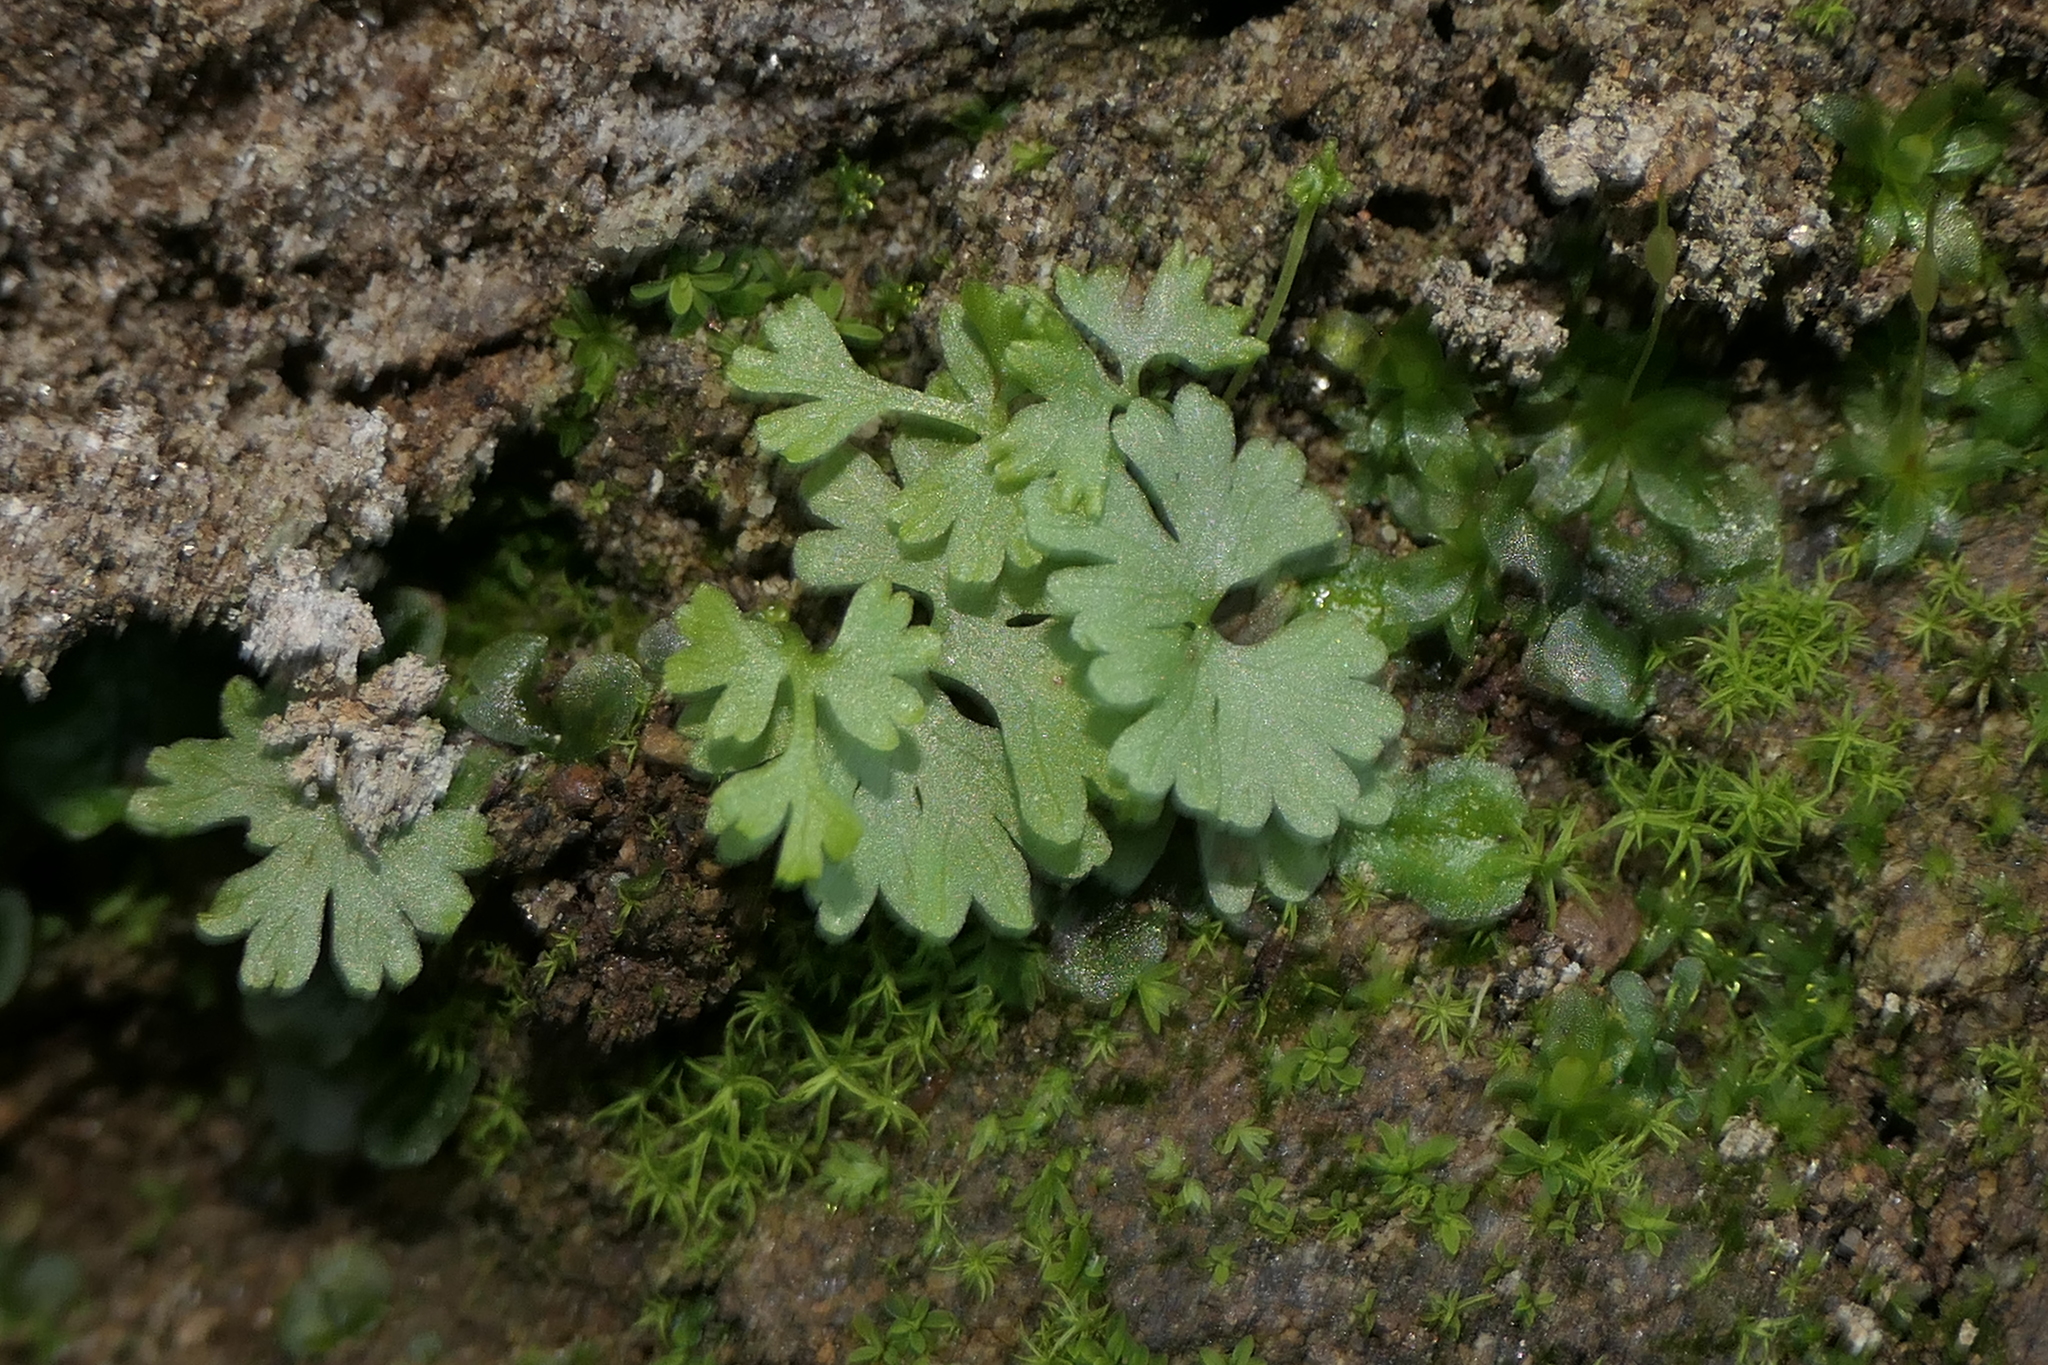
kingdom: Plantae
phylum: Tracheophyta
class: Polypodiopsida
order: Polypodiales
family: Pteridaceae
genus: Anogramma
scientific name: Anogramma leptophylla
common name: Jersey fern
